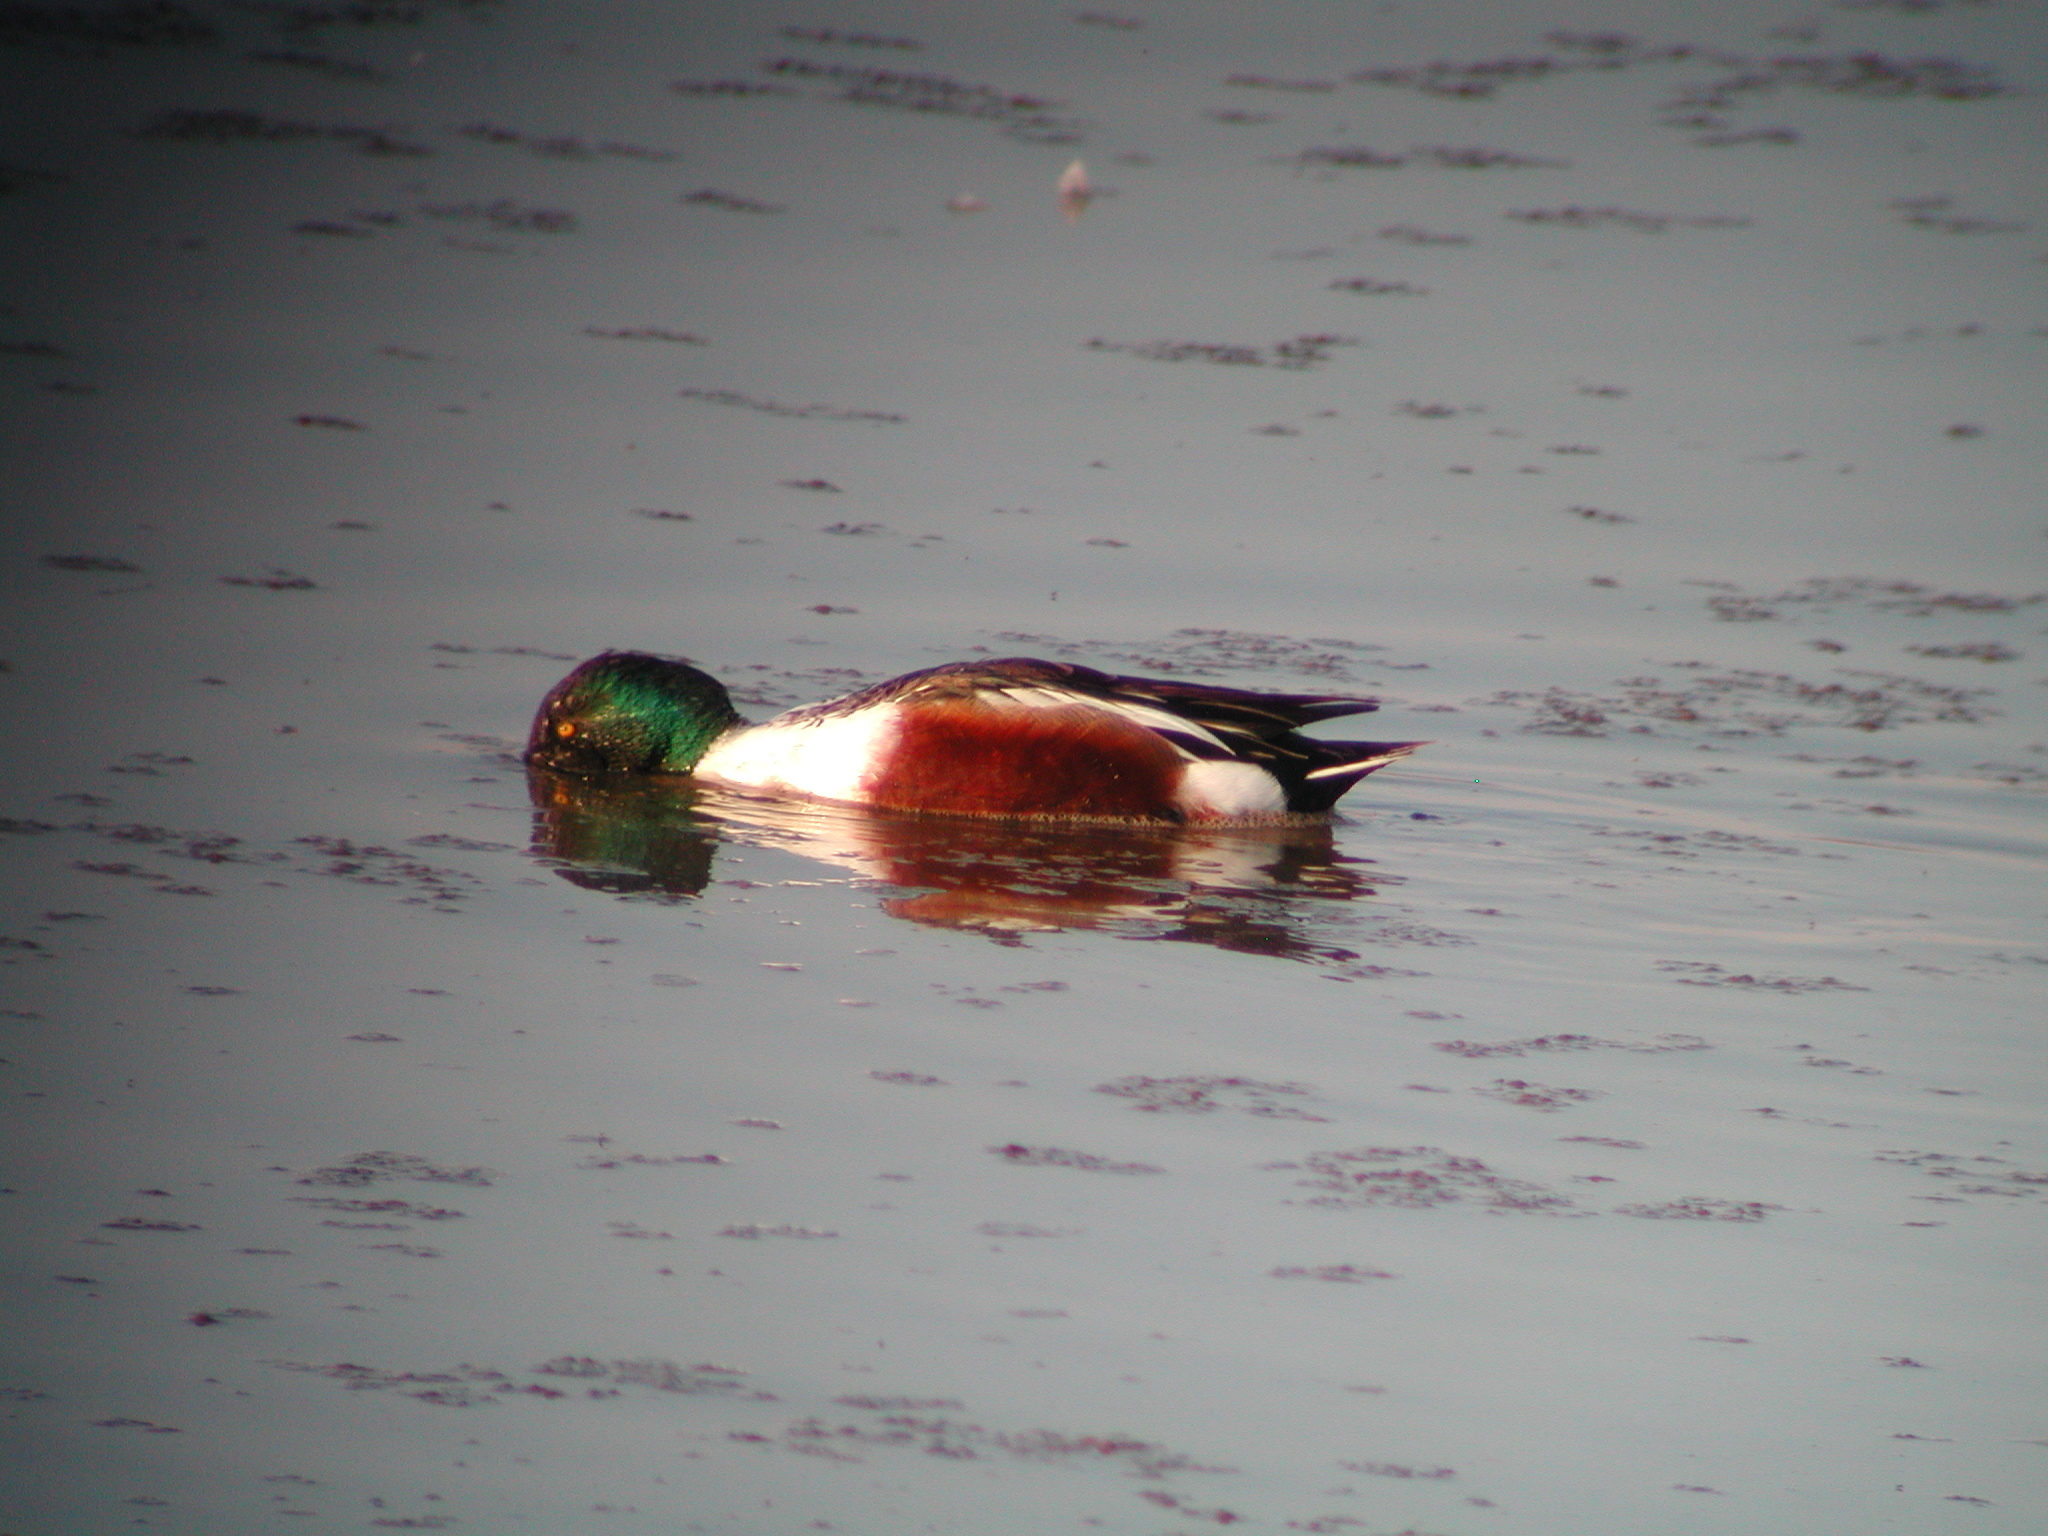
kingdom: Animalia
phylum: Chordata
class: Aves
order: Anseriformes
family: Anatidae
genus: Spatula
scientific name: Spatula clypeata
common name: Northern shoveler
